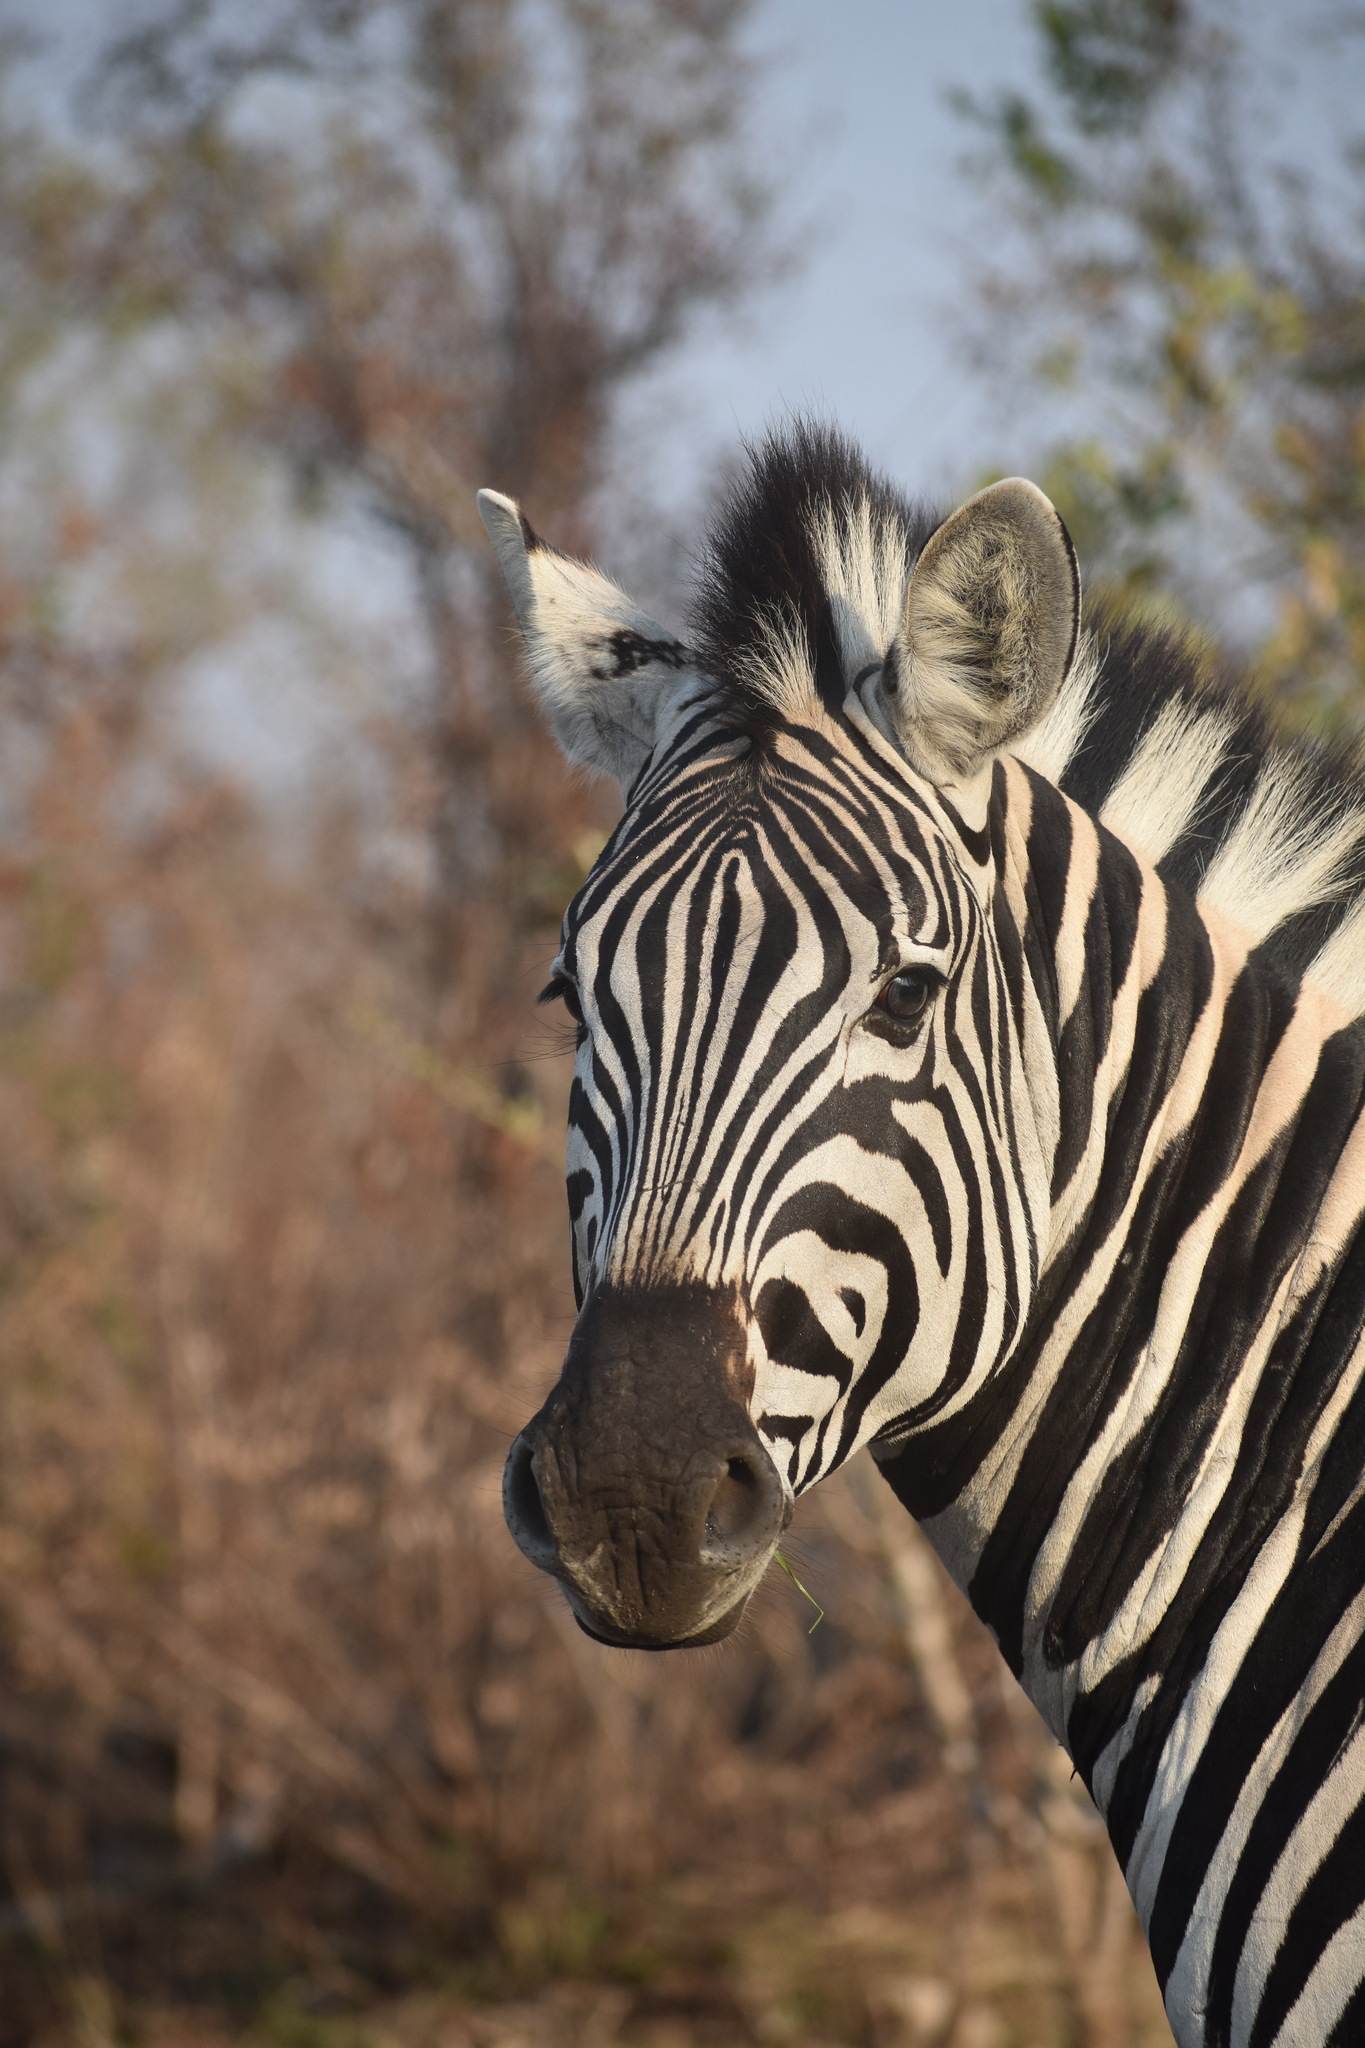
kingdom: Animalia
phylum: Chordata
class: Mammalia
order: Perissodactyla
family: Equidae
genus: Equus
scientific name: Equus quagga
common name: Plains zebra
